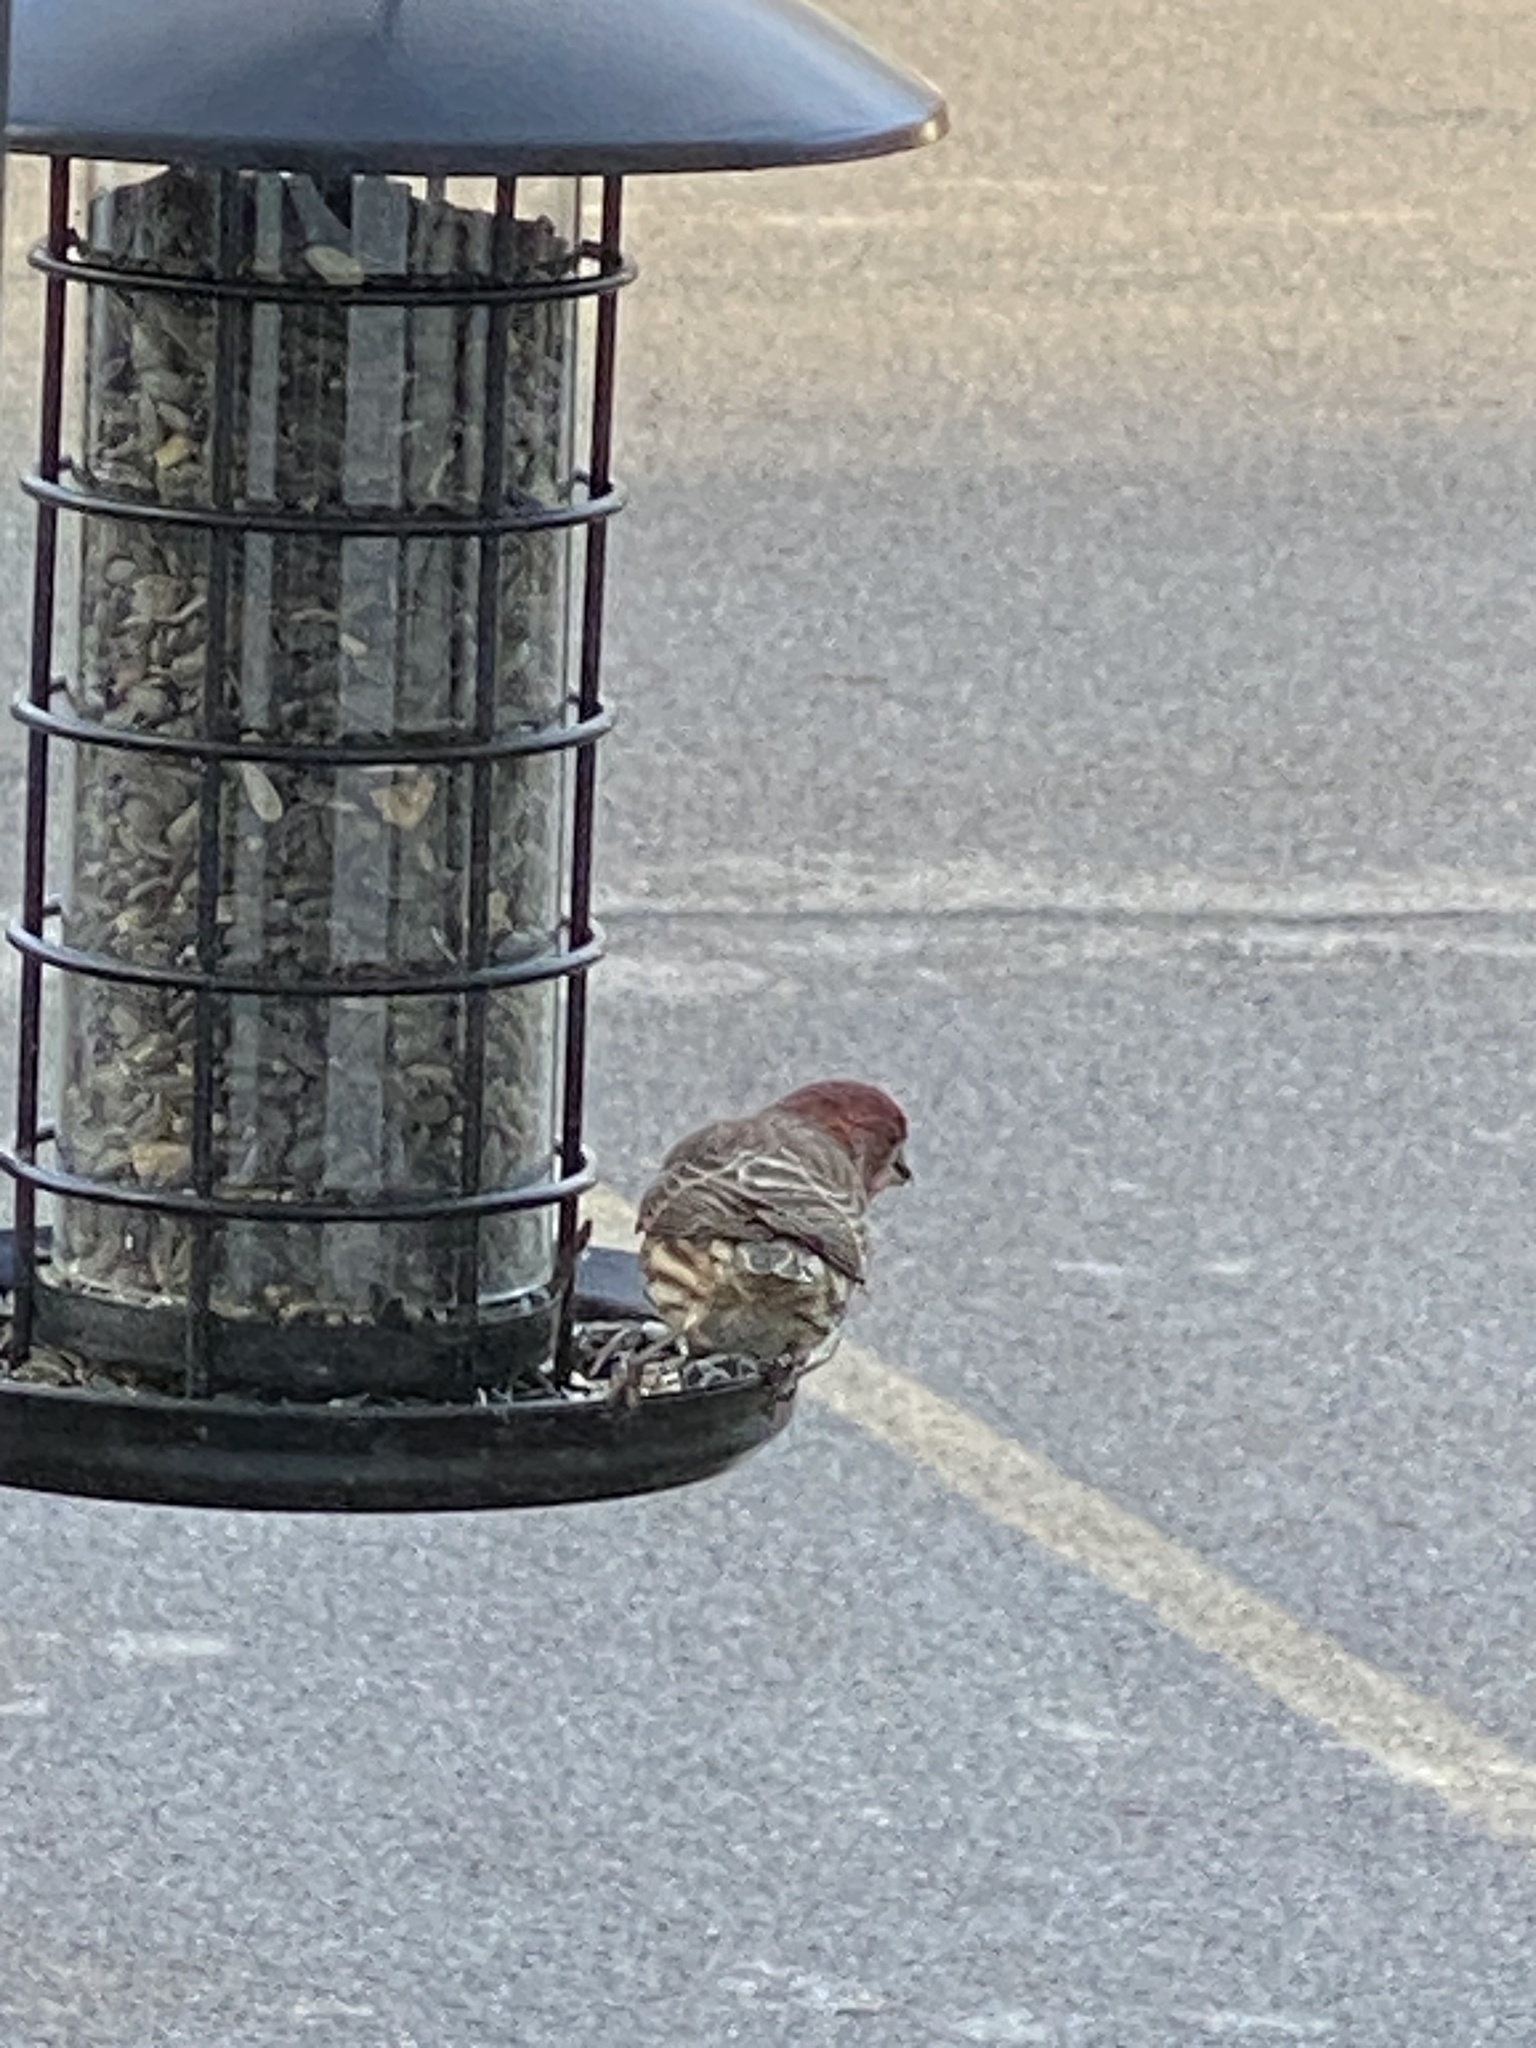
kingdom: Animalia
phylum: Chordata
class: Aves
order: Passeriformes
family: Fringillidae
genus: Haemorhous
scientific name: Haemorhous mexicanus
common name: House finch
